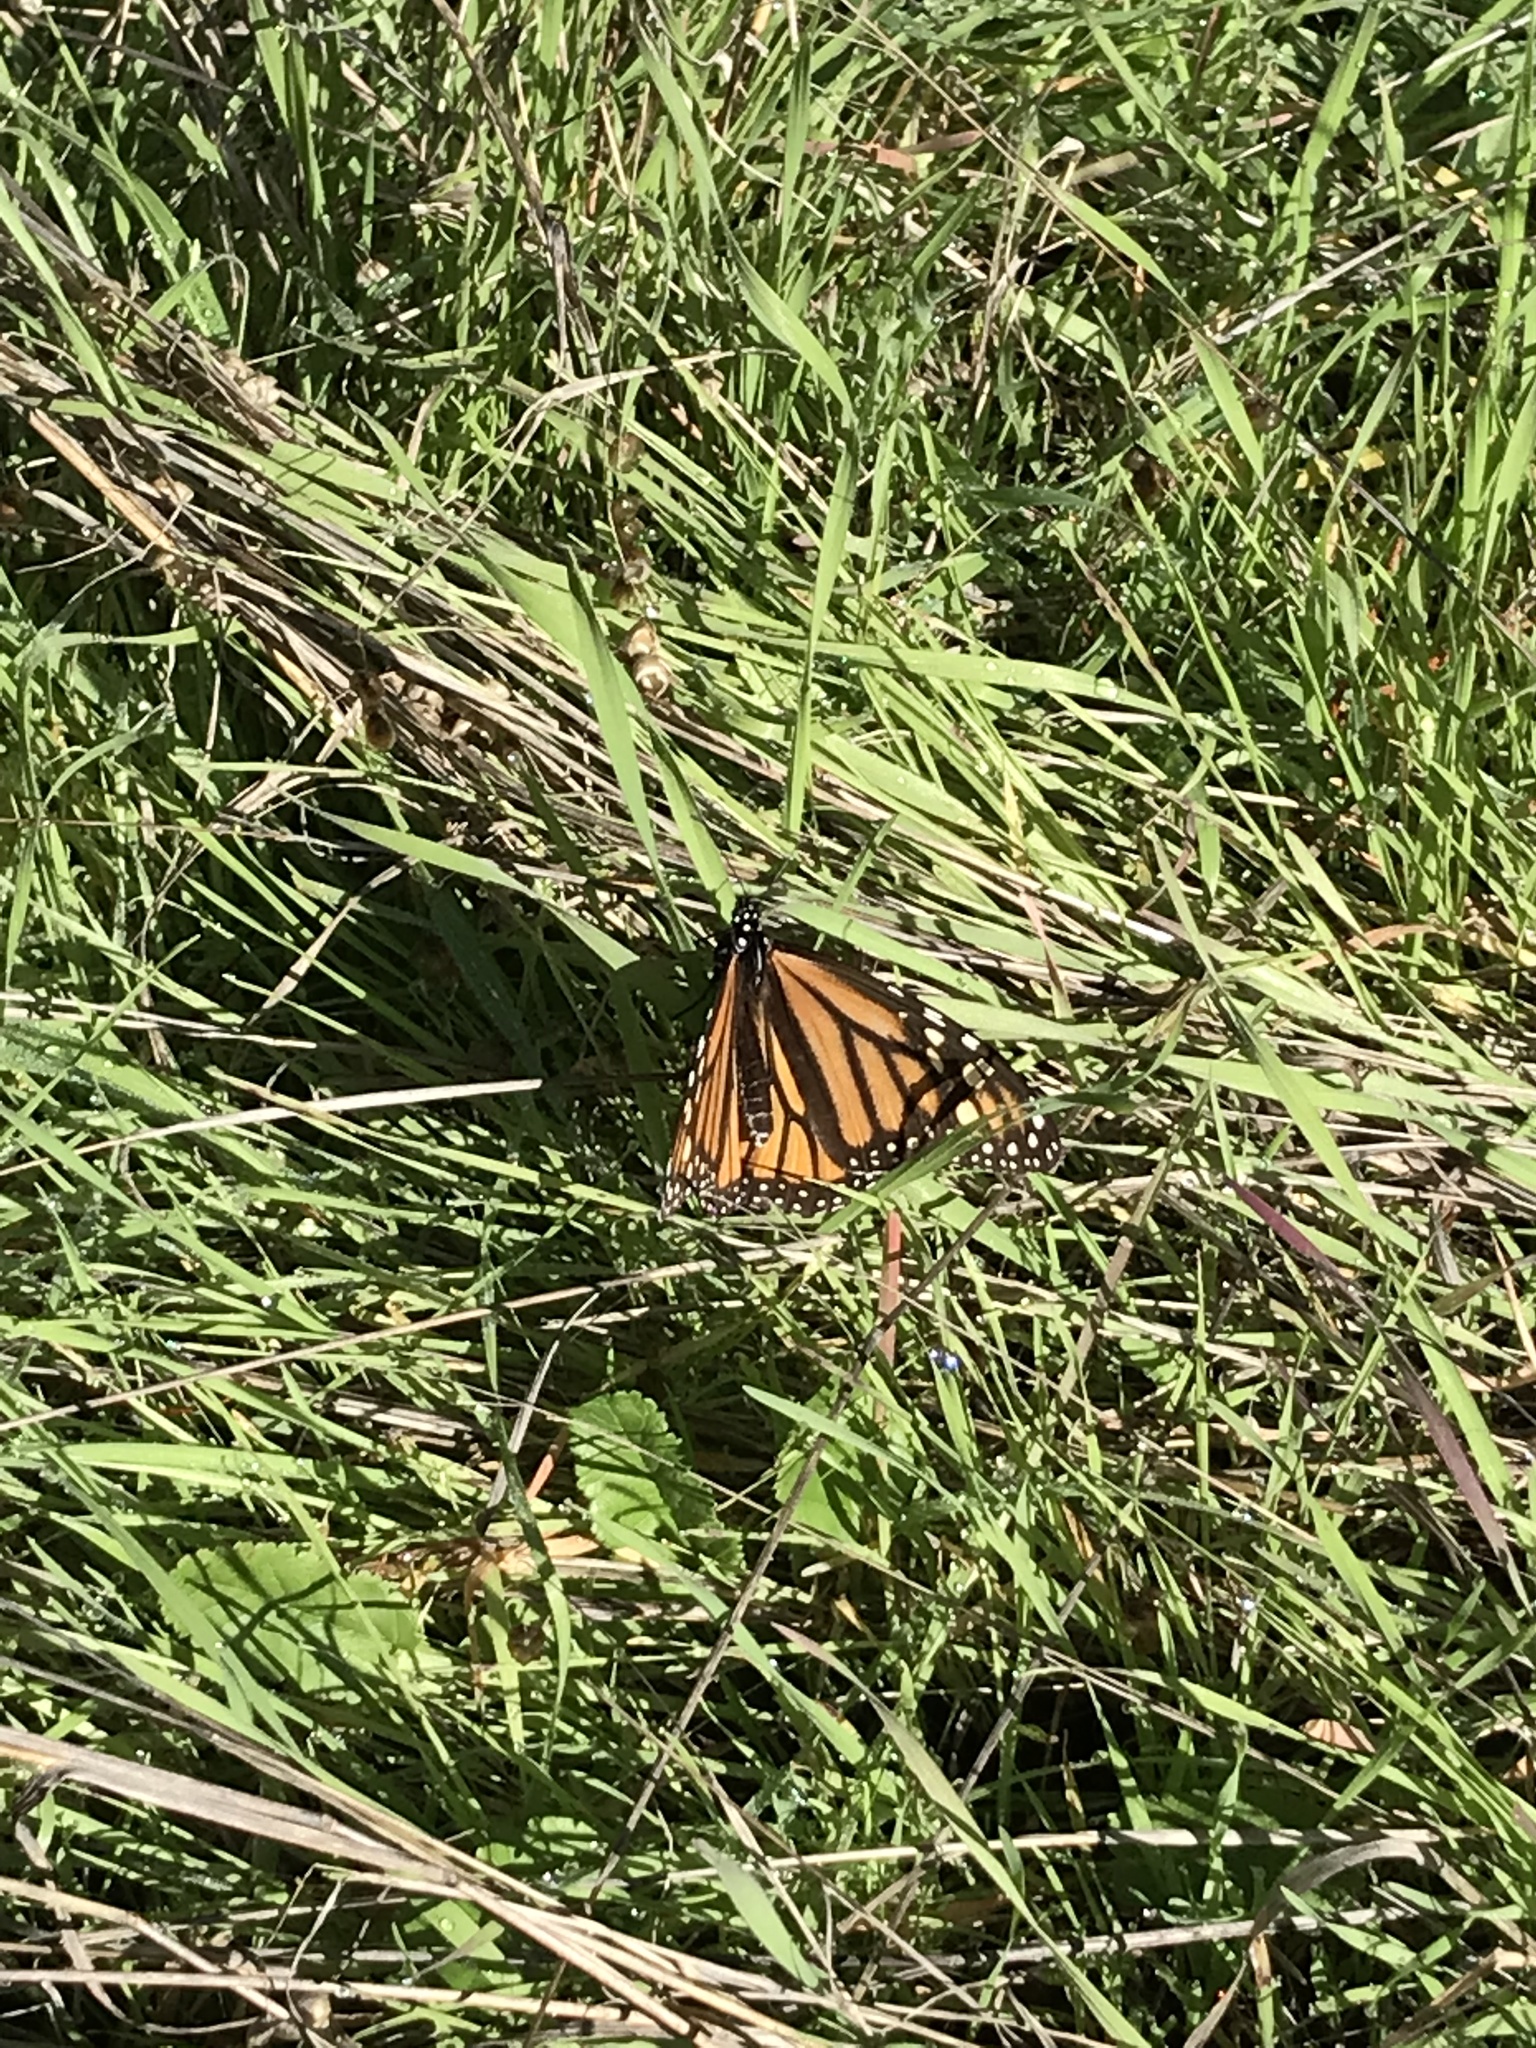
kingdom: Animalia
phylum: Arthropoda
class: Insecta
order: Lepidoptera
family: Nymphalidae
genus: Danaus
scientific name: Danaus plexippus
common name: Monarch
